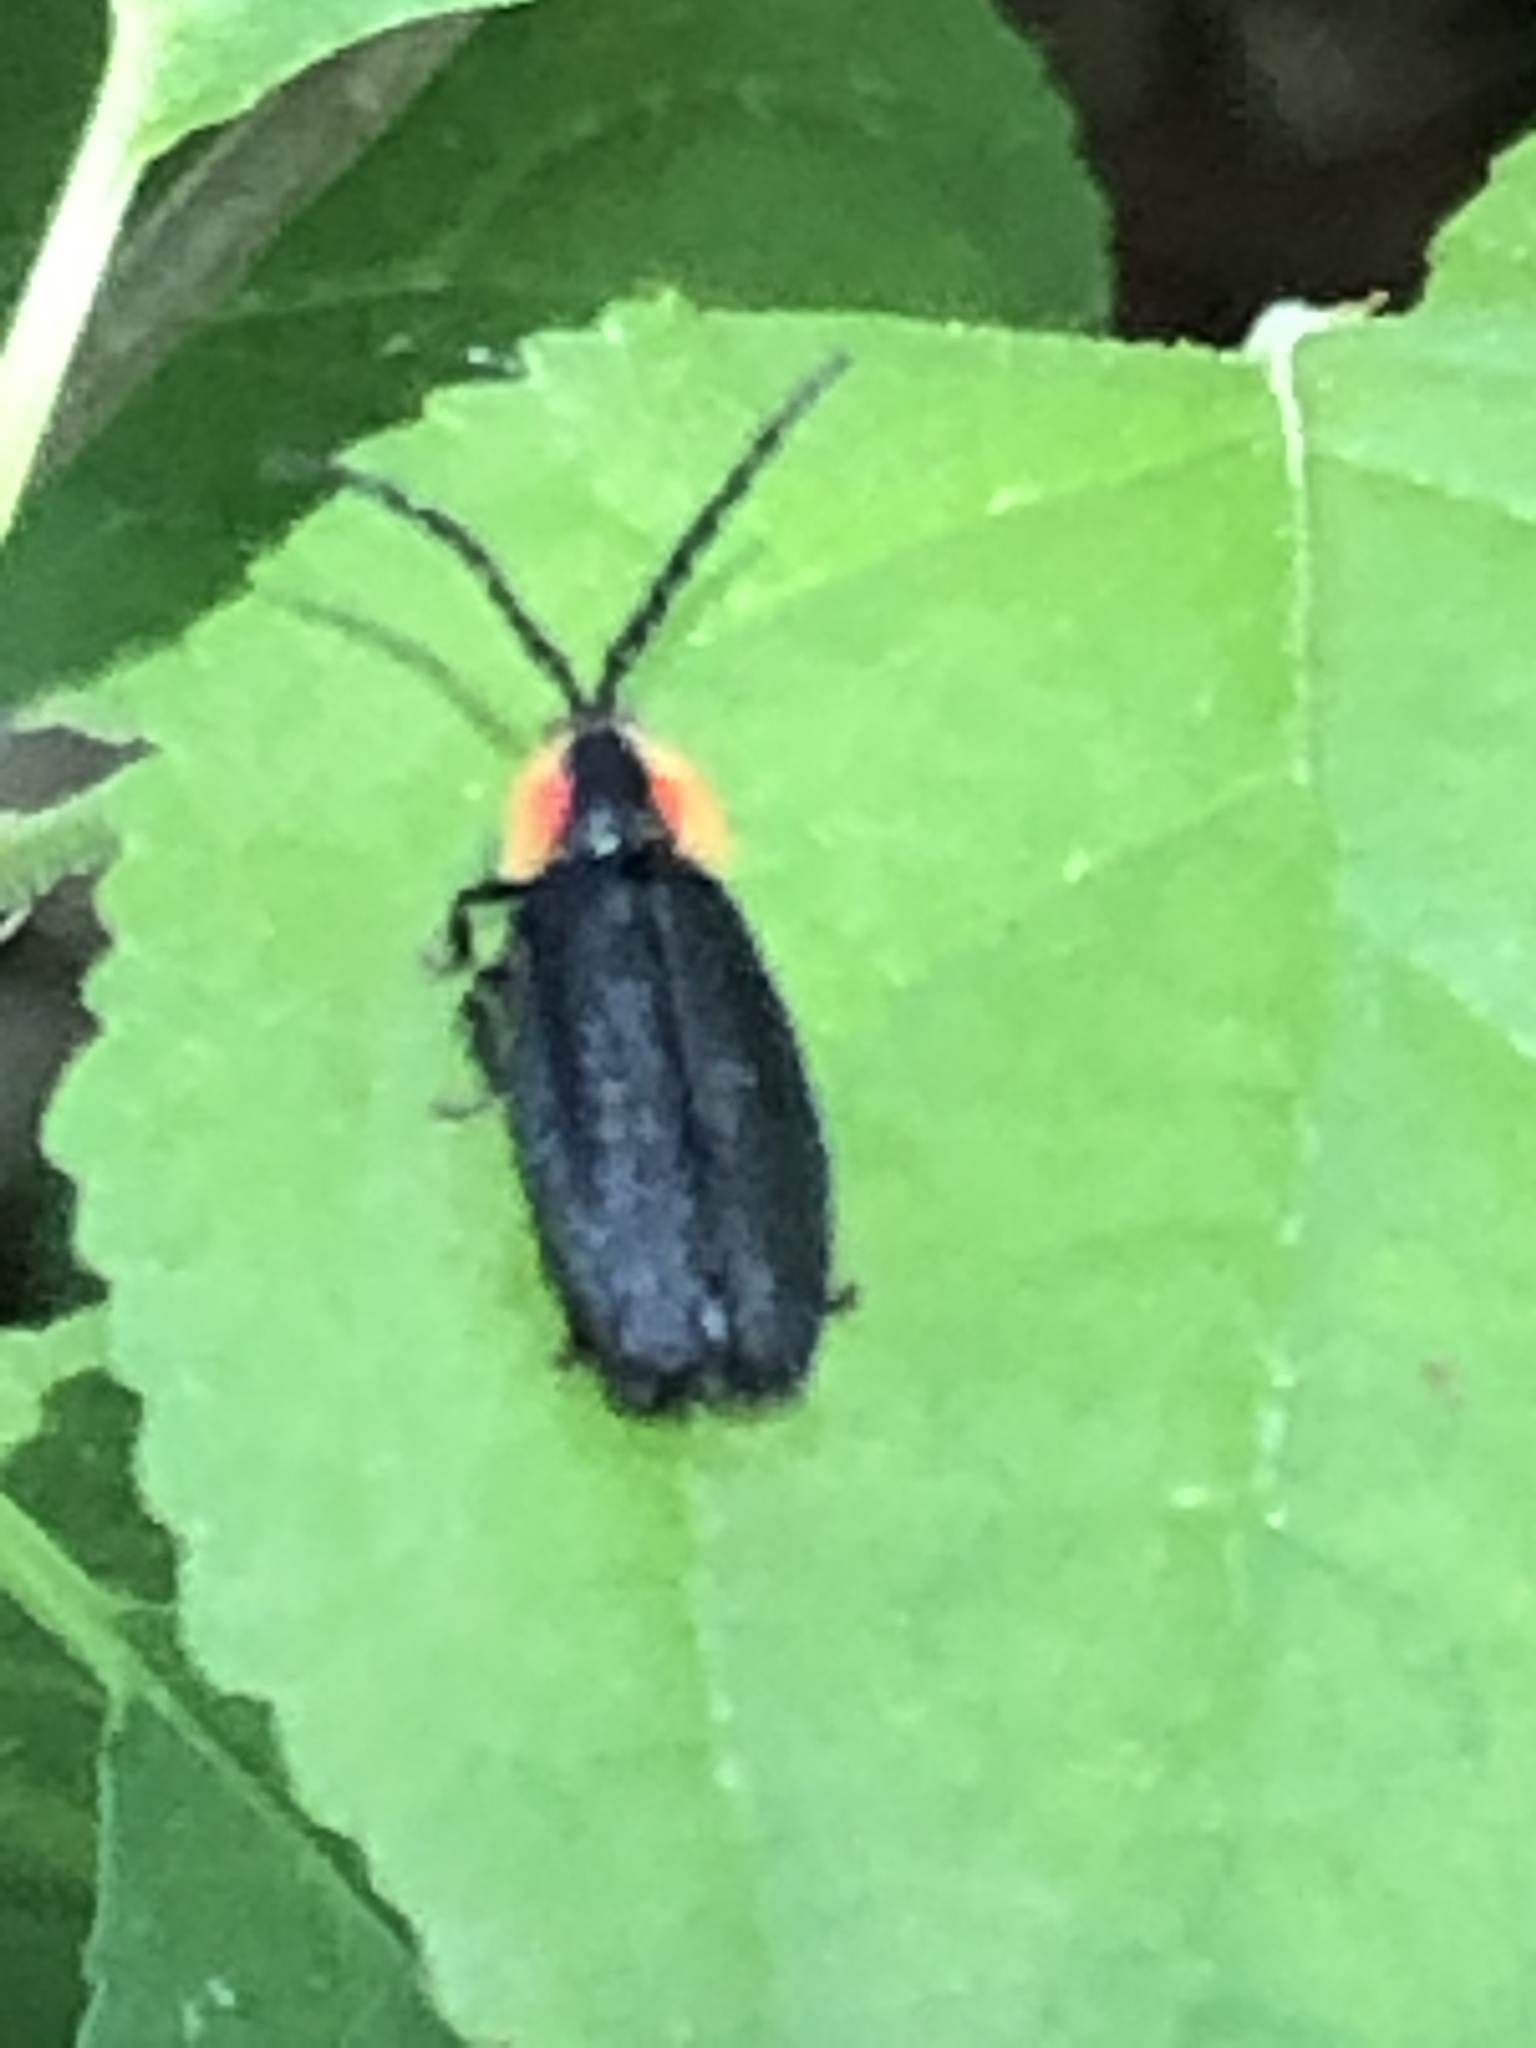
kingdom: Animalia
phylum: Arthropoda
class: Insecta
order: Coleoptera
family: Lampyridae
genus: Lucidota
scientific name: Lucidota atra
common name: Black firefly
